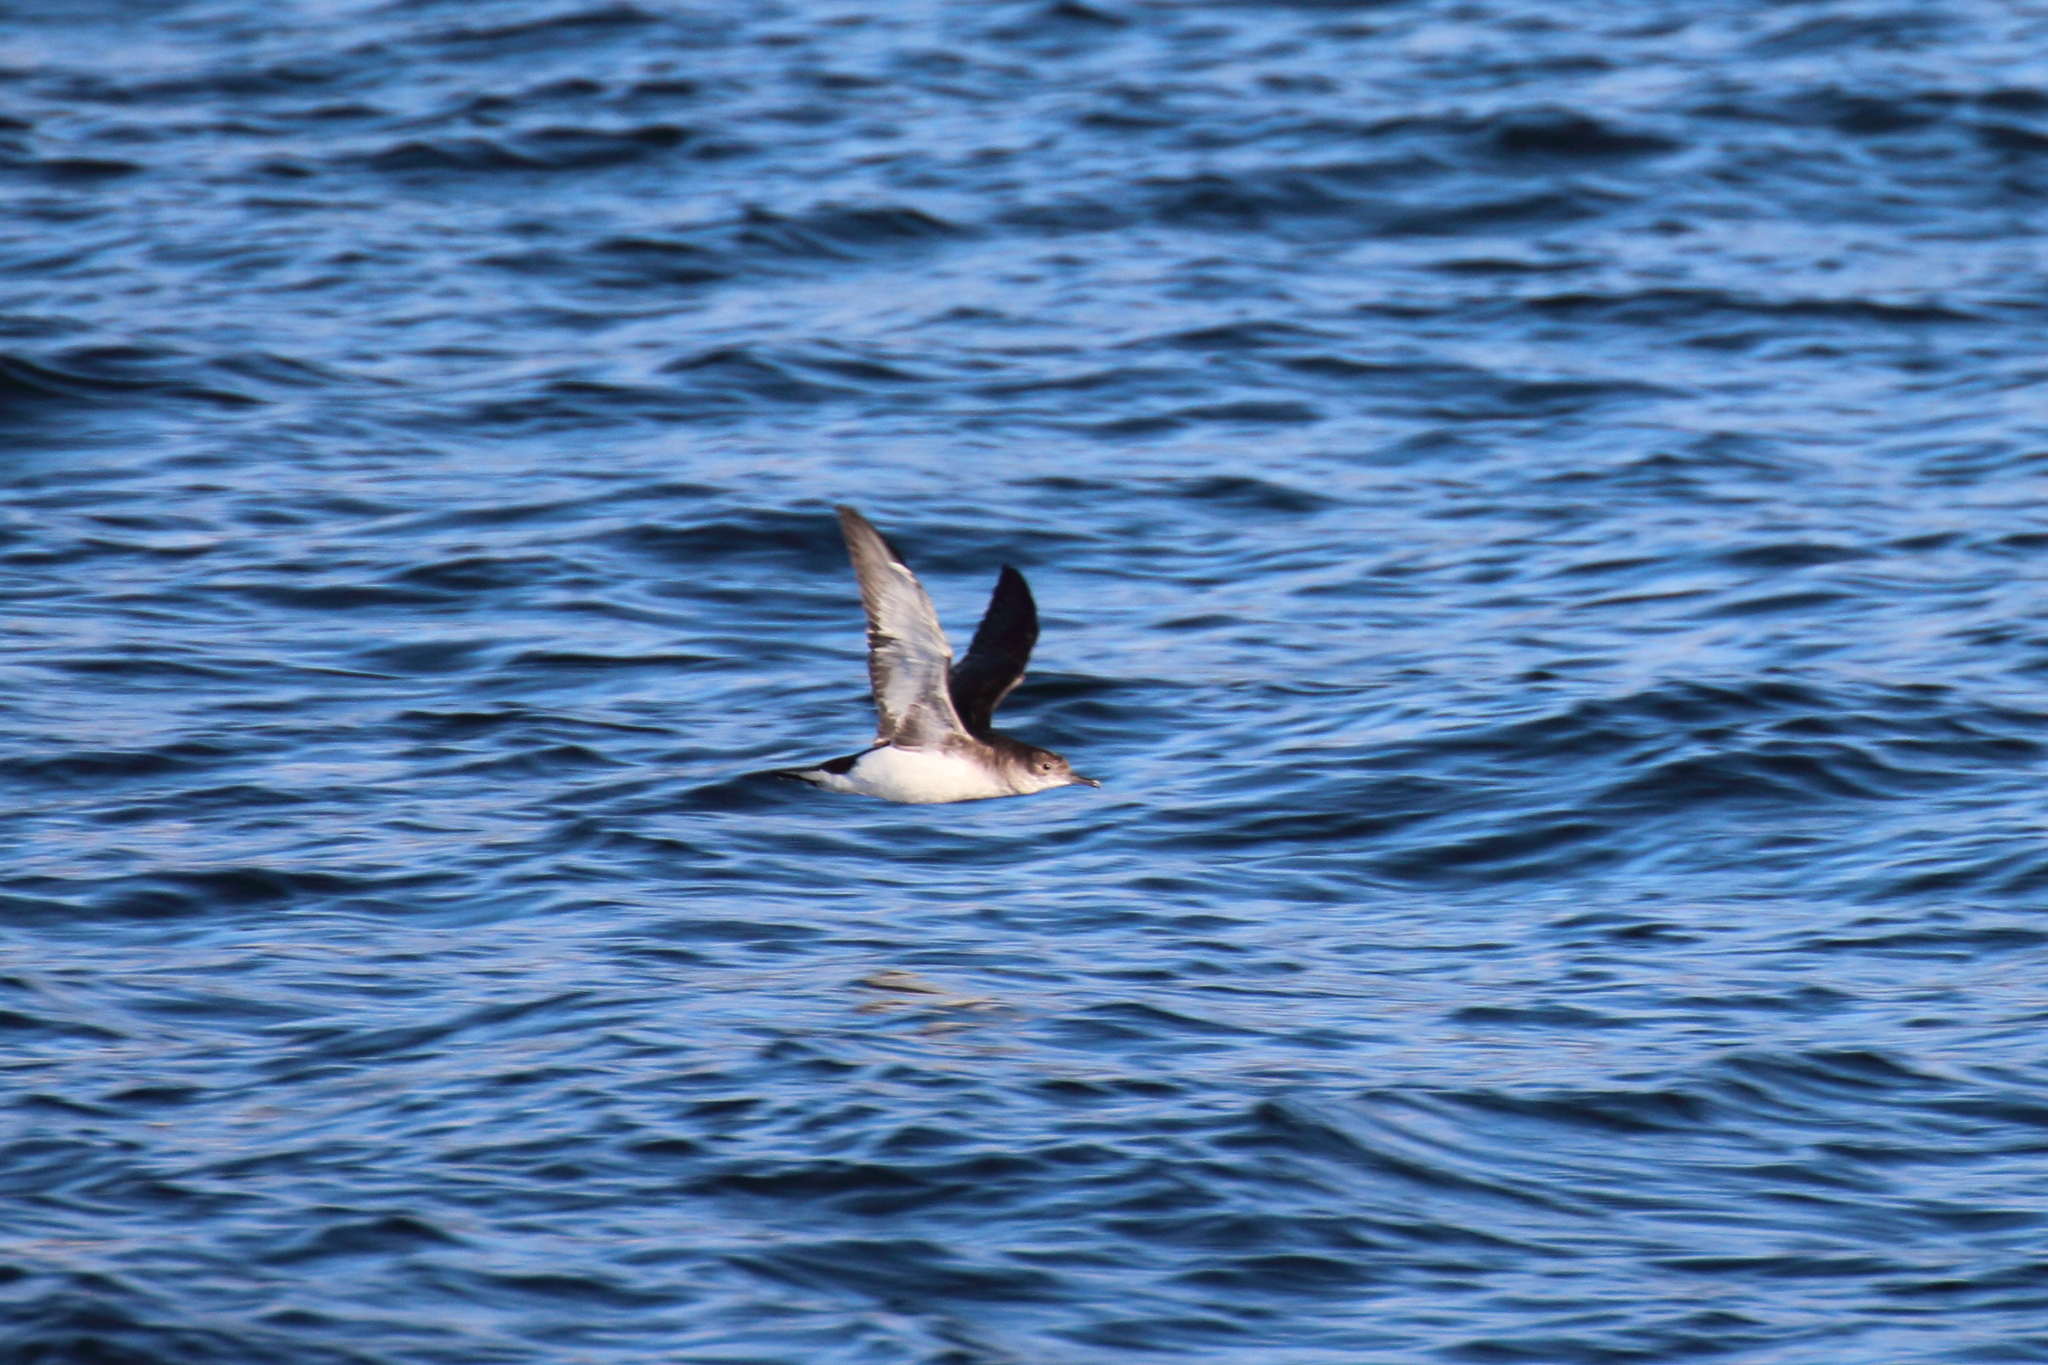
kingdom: Animalia
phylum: Chordata
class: Aves
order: Procellariiformes
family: Procellariidae
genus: Puffinus
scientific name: Puffinus gavia
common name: Fluttering shearwater
